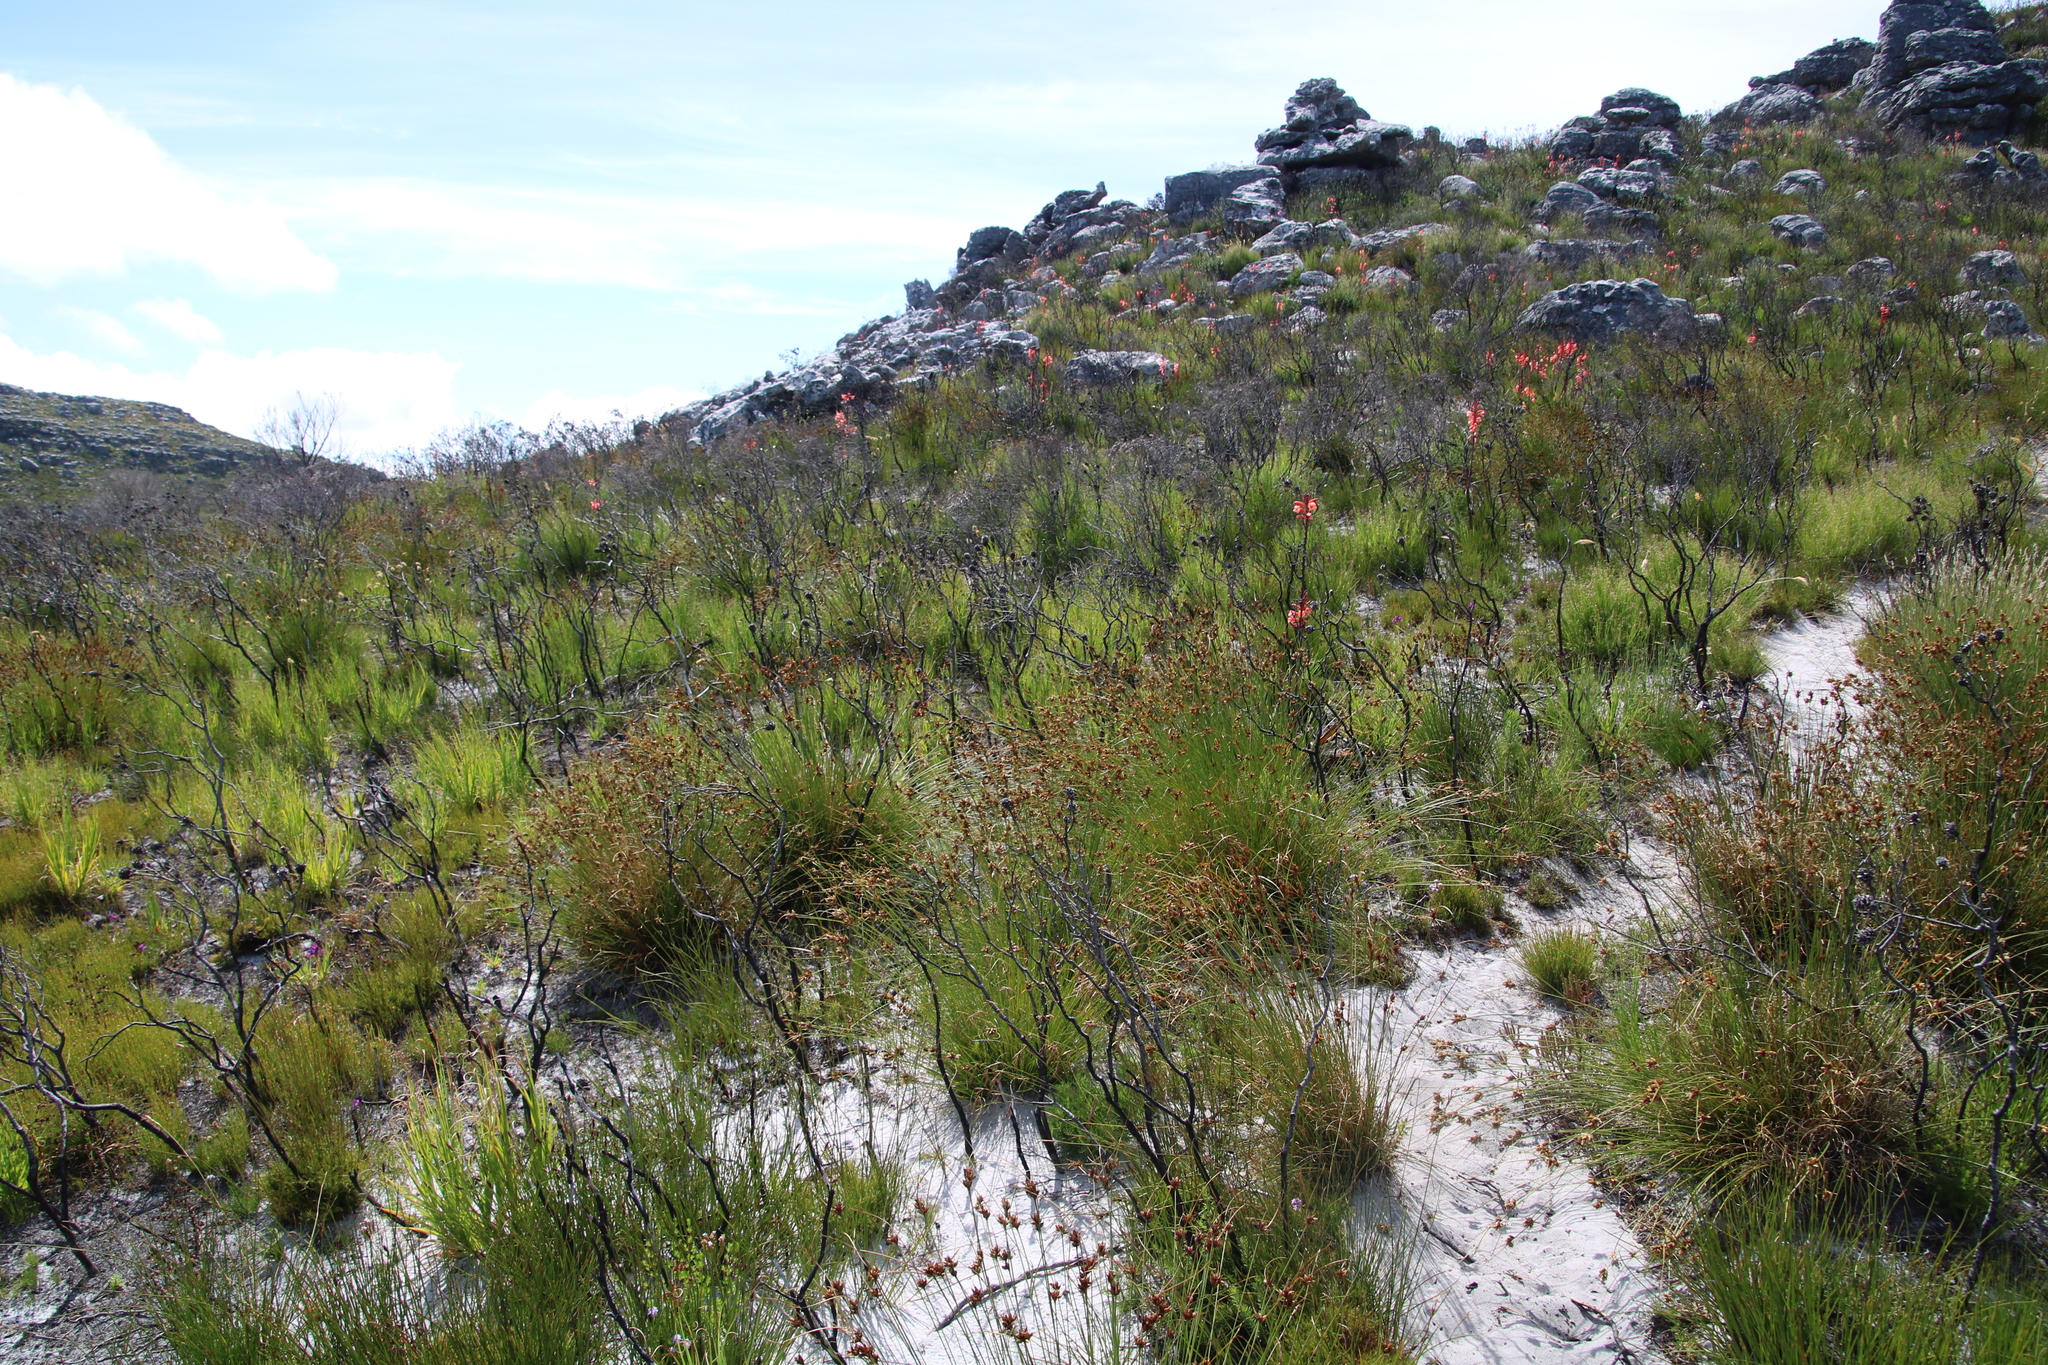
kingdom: Plantae
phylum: Tracheophyta
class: Liliopsida
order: Poales
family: Cyperaceae
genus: Schoenus
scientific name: Schoenus compar
